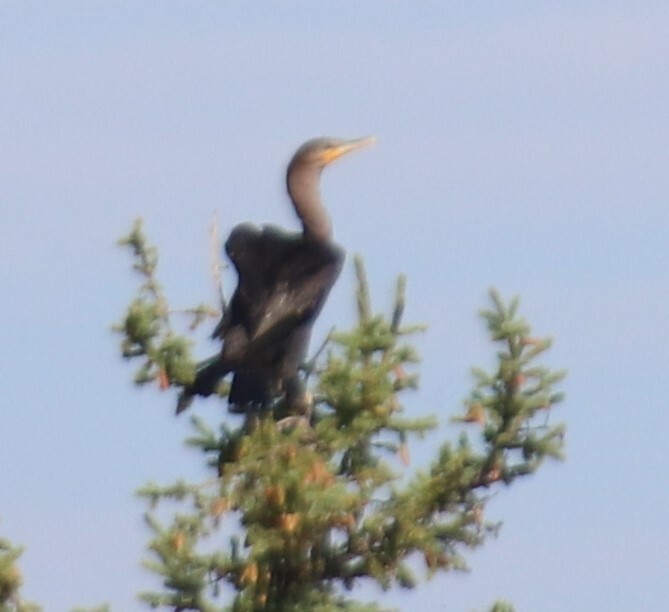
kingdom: Animalia
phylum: Chordata
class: Aves
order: Suliformes
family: Phalacrocoracidae
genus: Phalacrocorax
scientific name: Phalacrocorax auritus
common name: Double-crested cormorant
